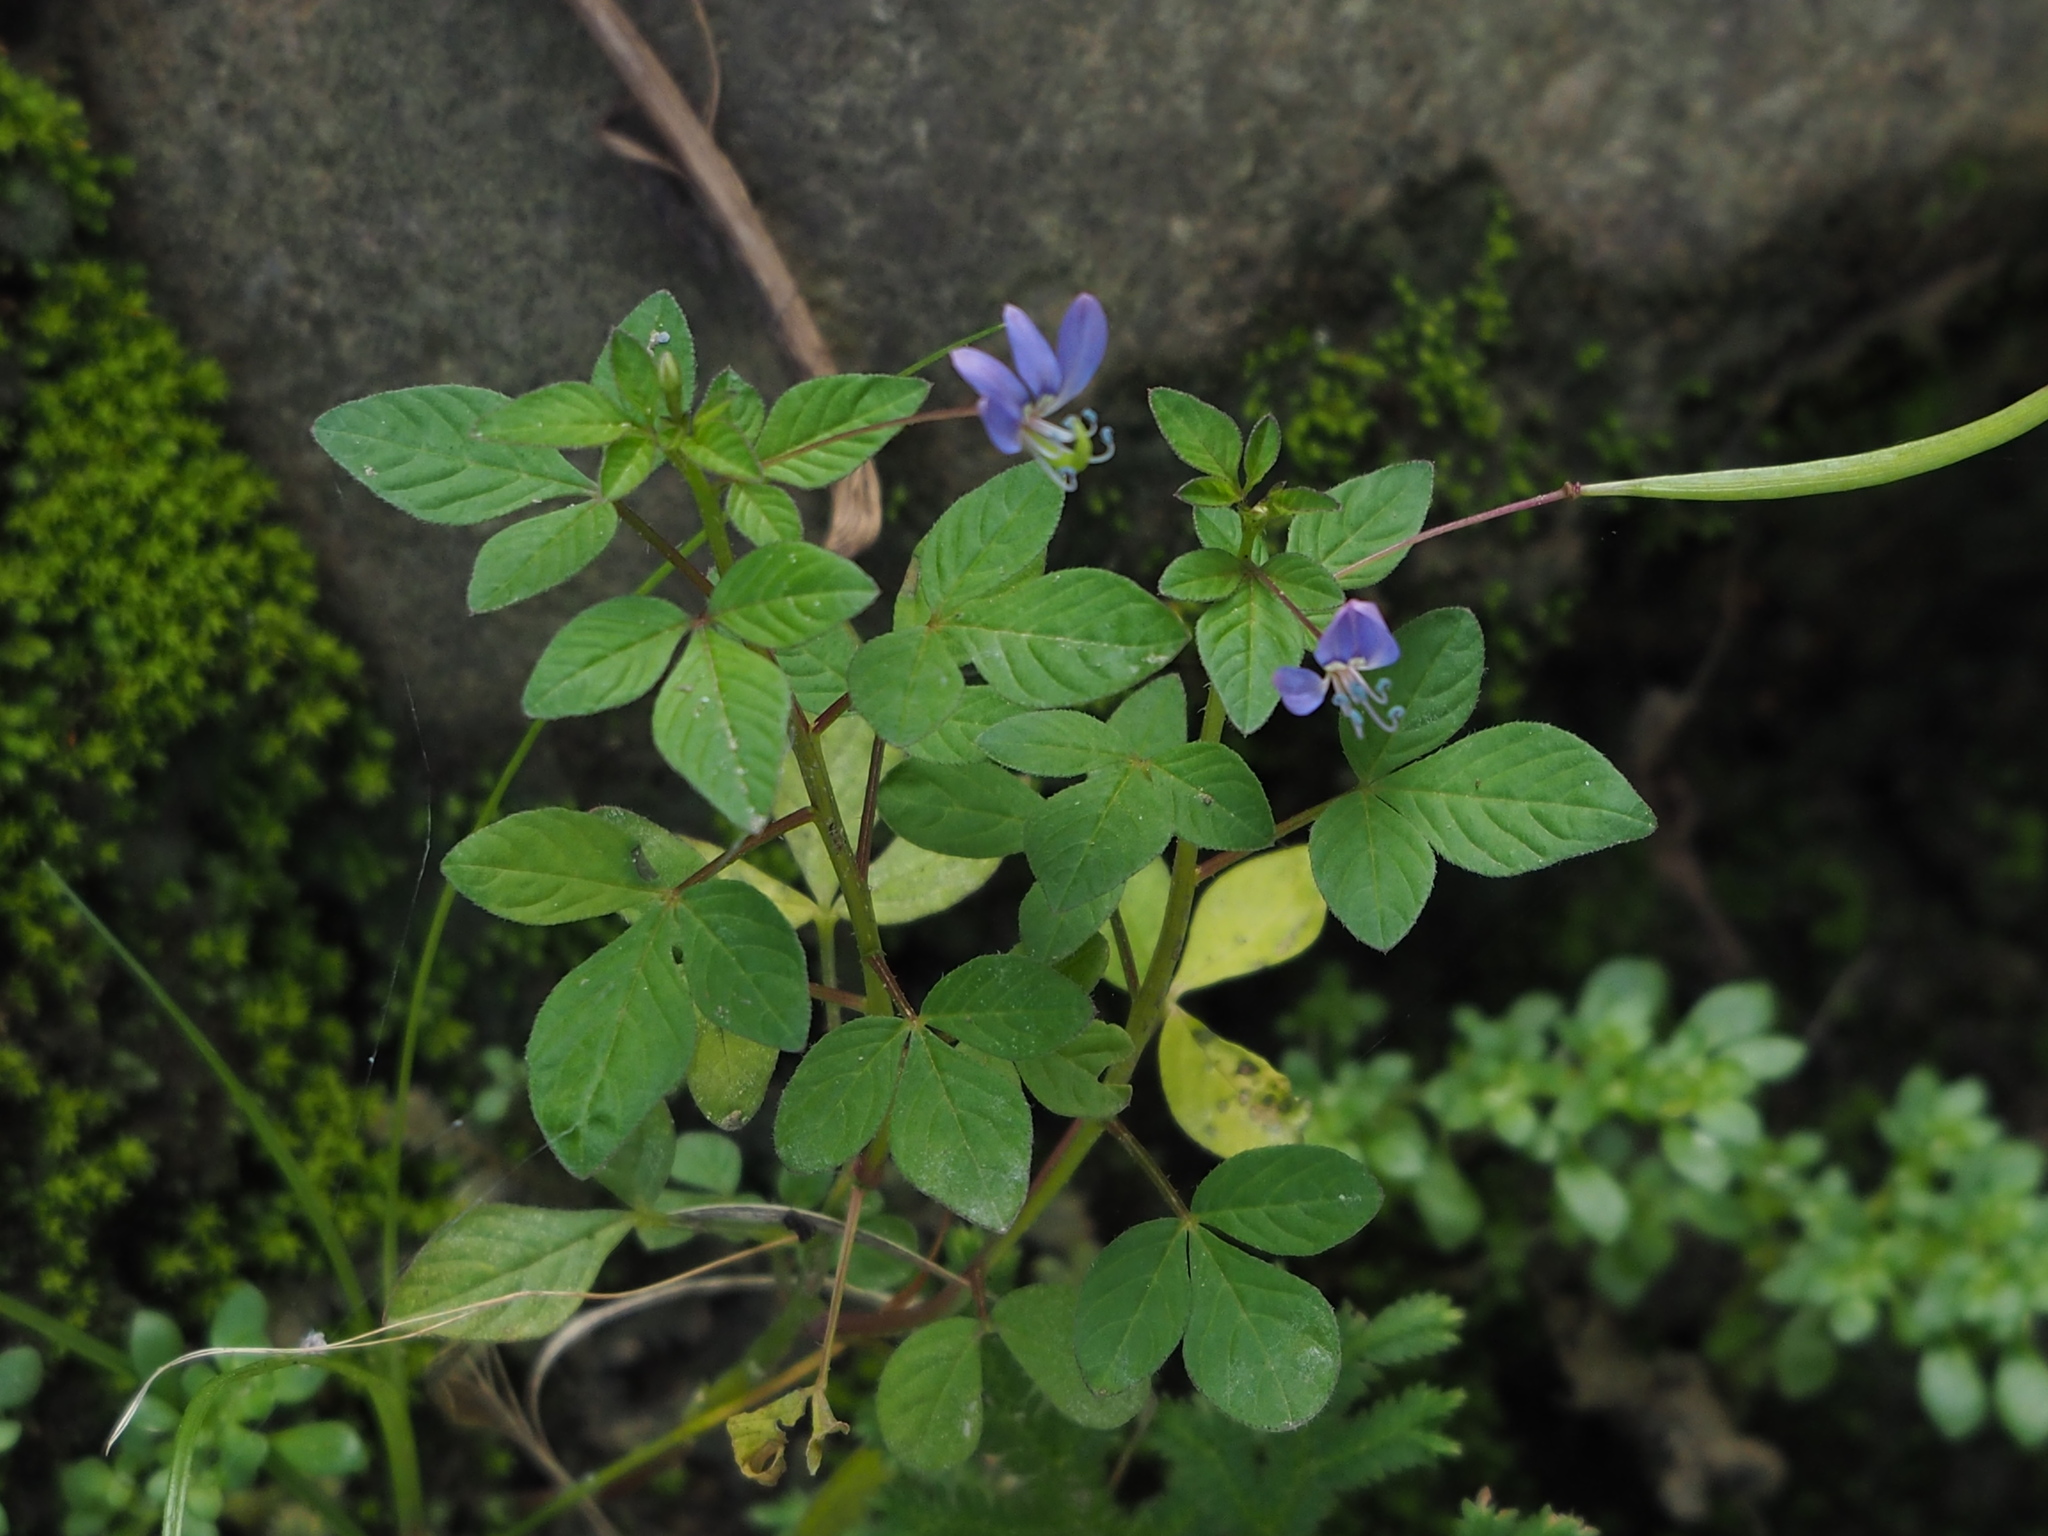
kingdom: Plantae
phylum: Tracheophyta
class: Magnoliopsida
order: Brassicales
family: Cleomaceae
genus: Sieruela
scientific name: Sieruela rutidosperma
